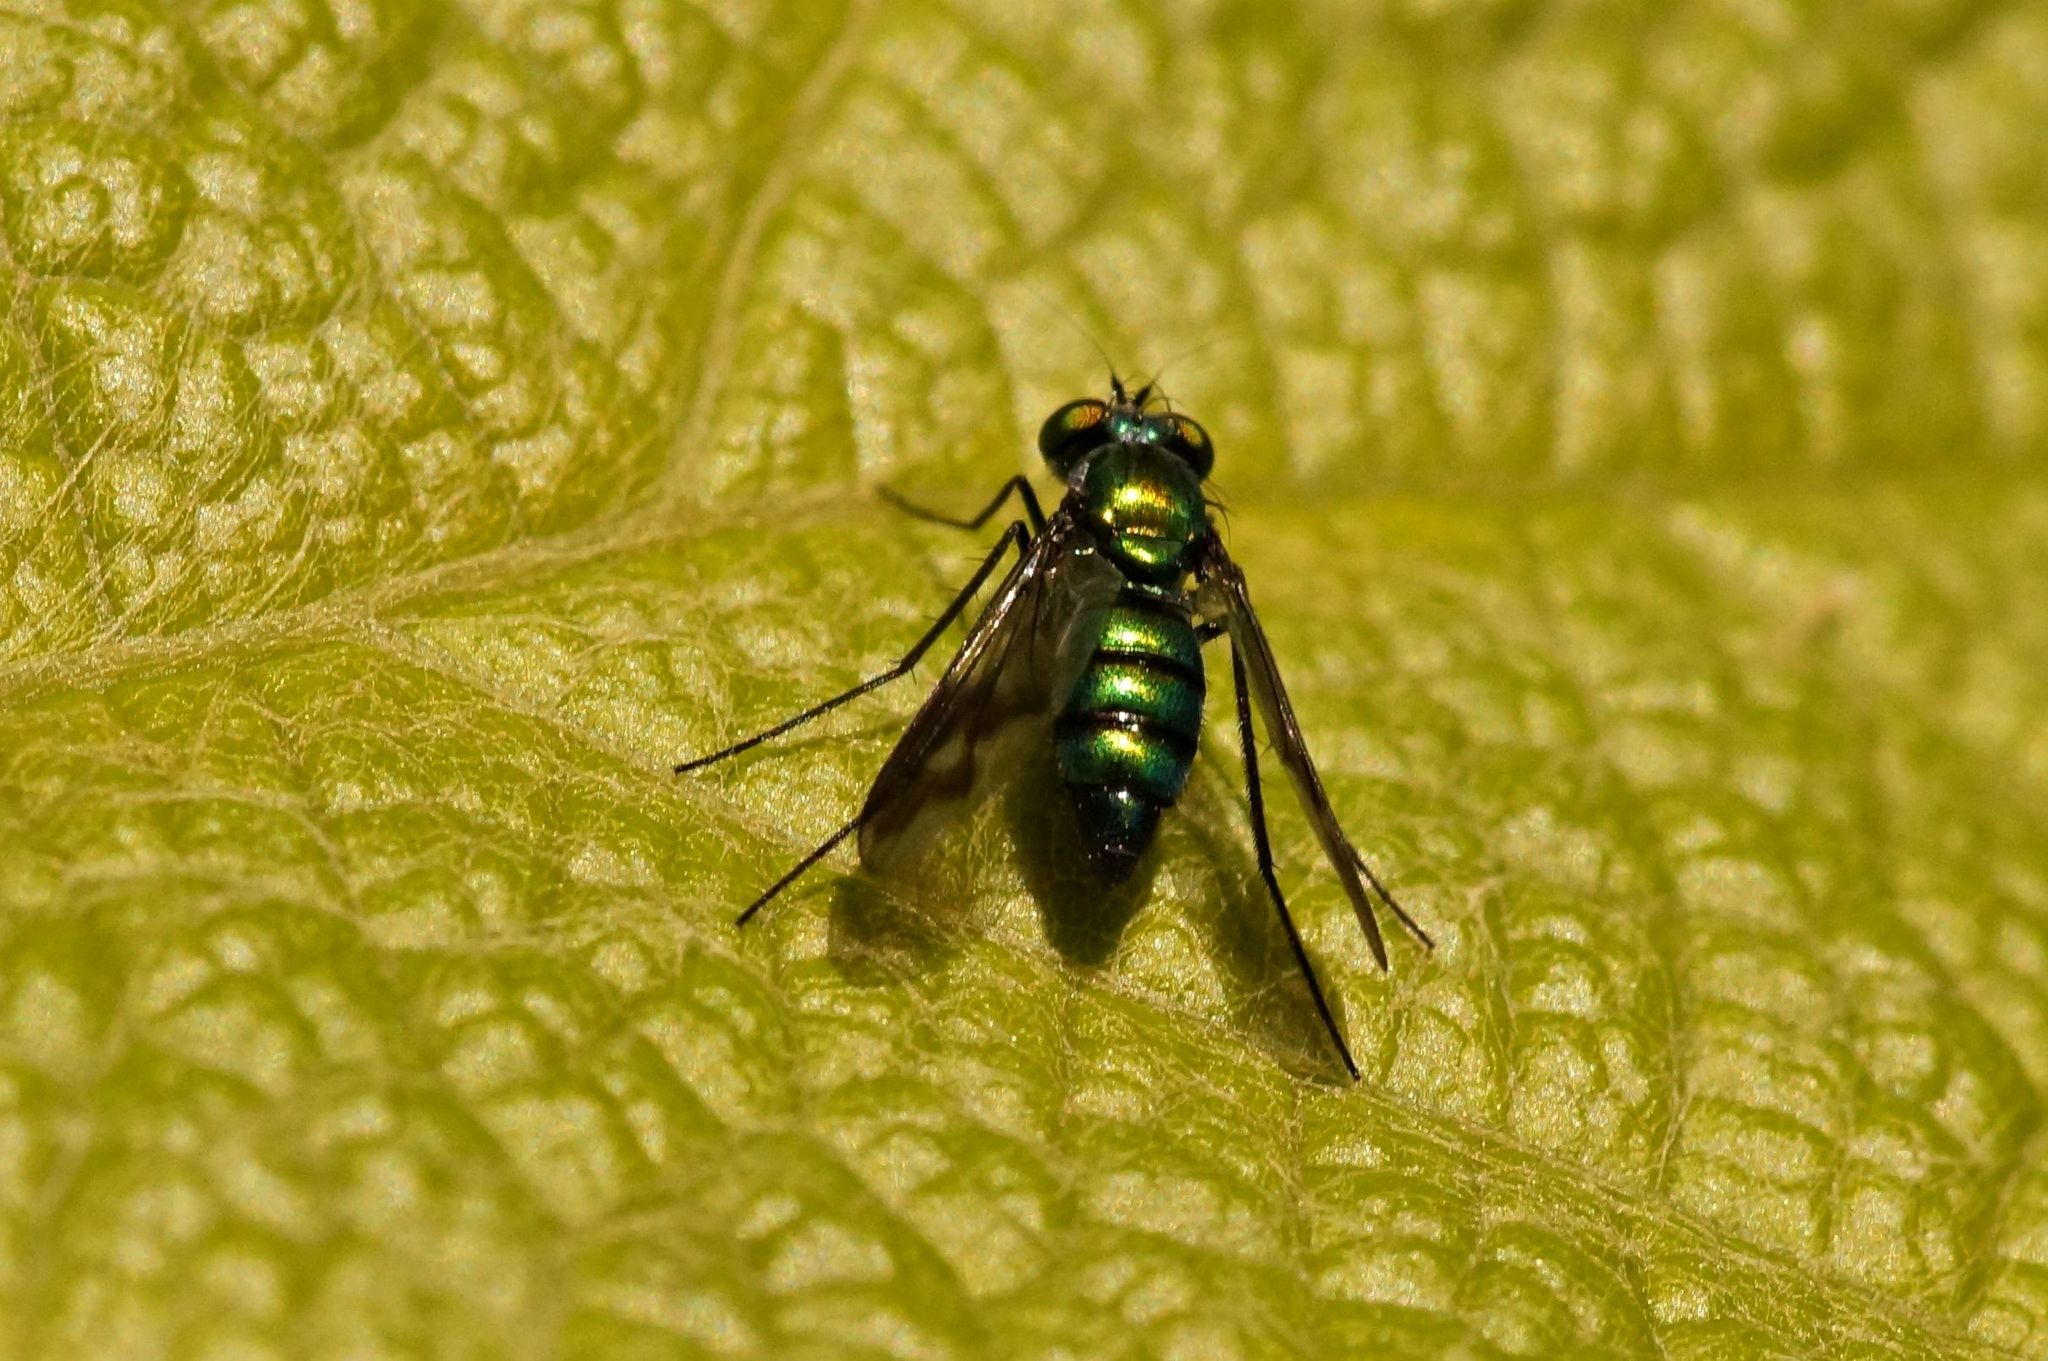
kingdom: Animalia
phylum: Arthropoda
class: Insecta
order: Diptera
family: Dolichopodidae
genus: Condylostylus
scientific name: Condylostylus patibulatus
